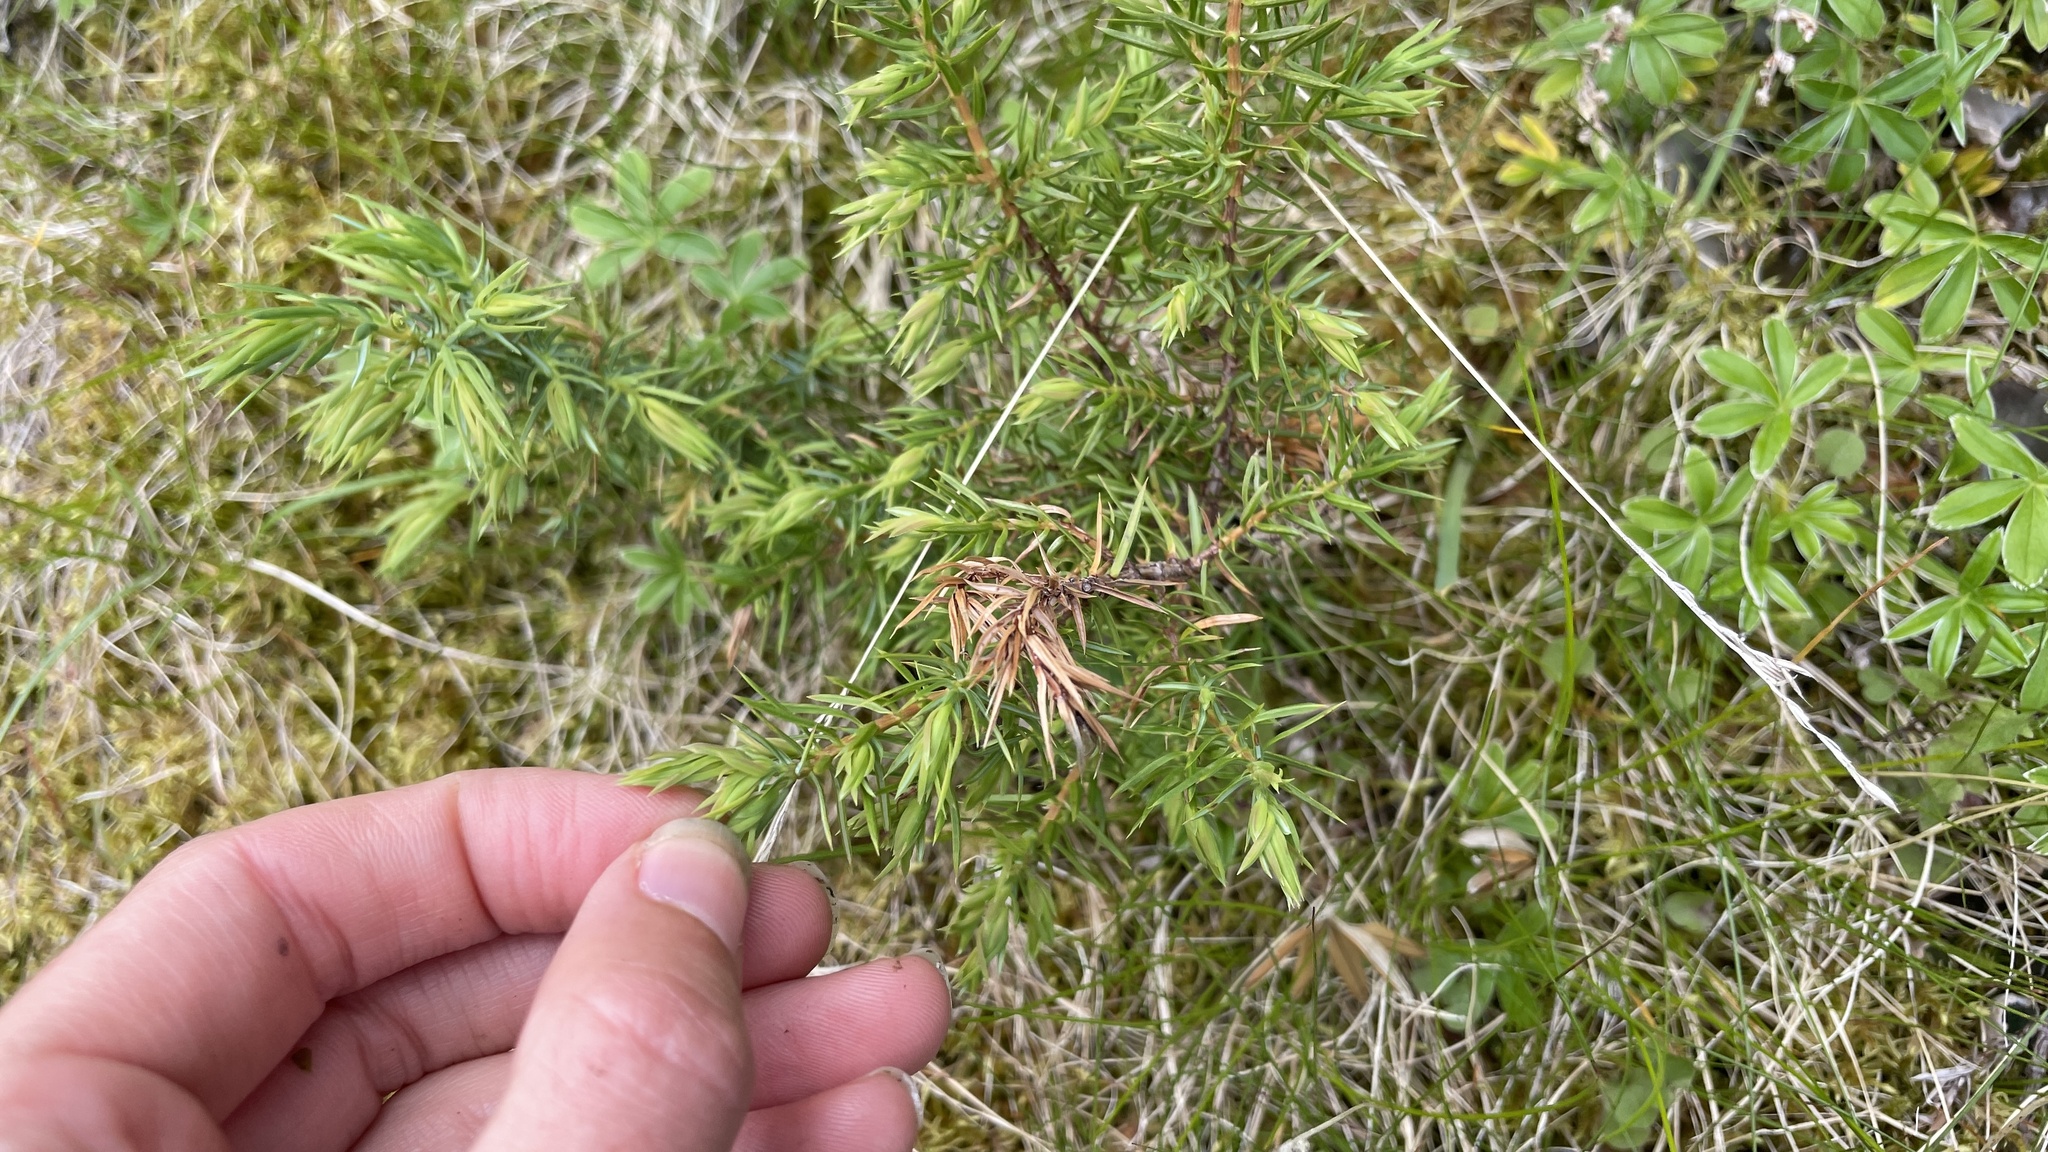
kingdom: Plantae
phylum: Tracheophyta
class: Pinopsida
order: Pinales
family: Cupressaceae
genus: Juniperus
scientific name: Juniperus communis
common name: Common juniper
